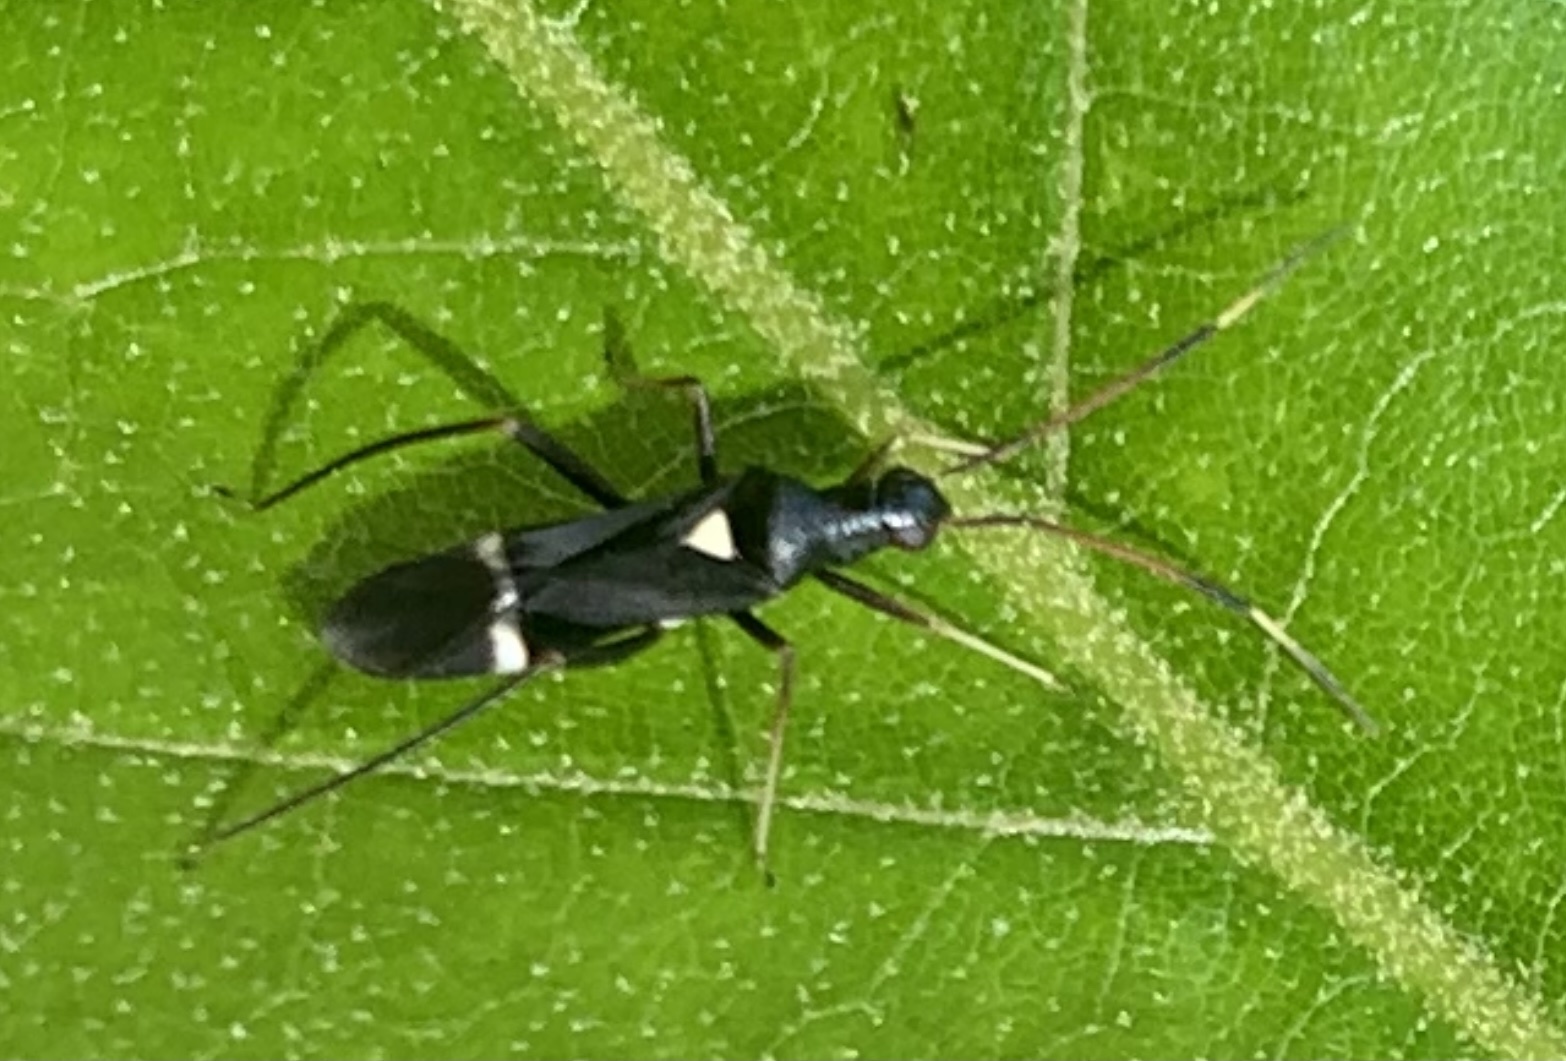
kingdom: Animalia
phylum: Arthropoda
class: Insecta
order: Hemiptera
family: Miridae
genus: Pseudoxenetus
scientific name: Pseudoxenetus regalis
